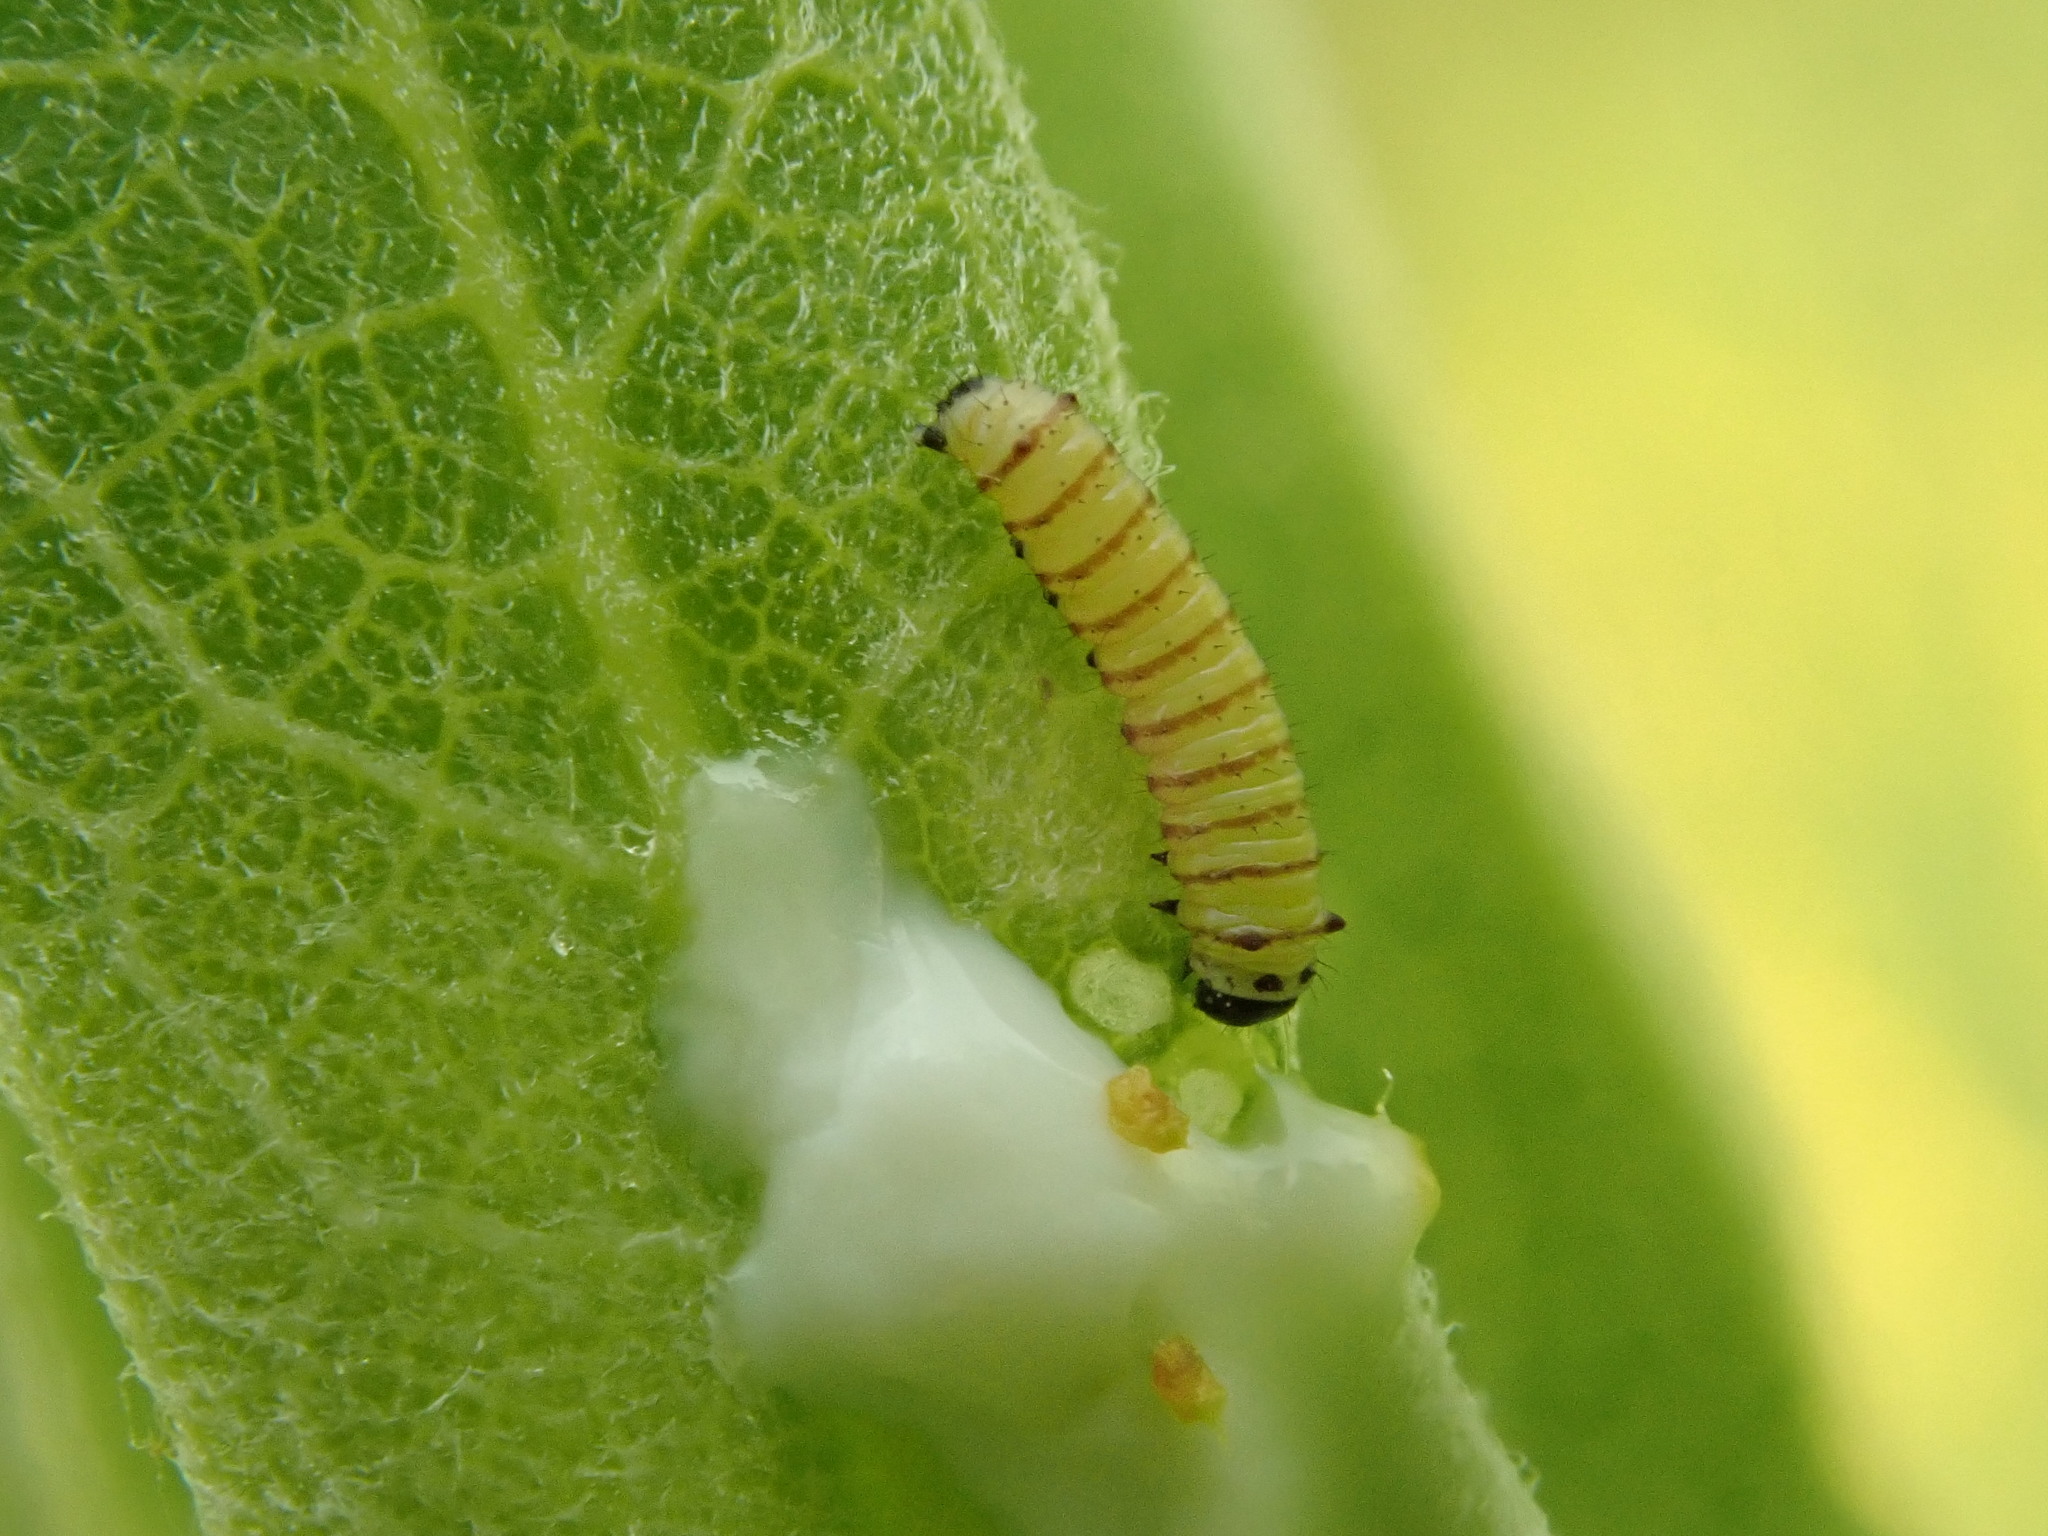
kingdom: Animalia
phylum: Arthropoda
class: Insecta
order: Lepidoptera
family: Nymphalidae
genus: Danaus
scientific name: Danaus plexippus
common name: Monarch
